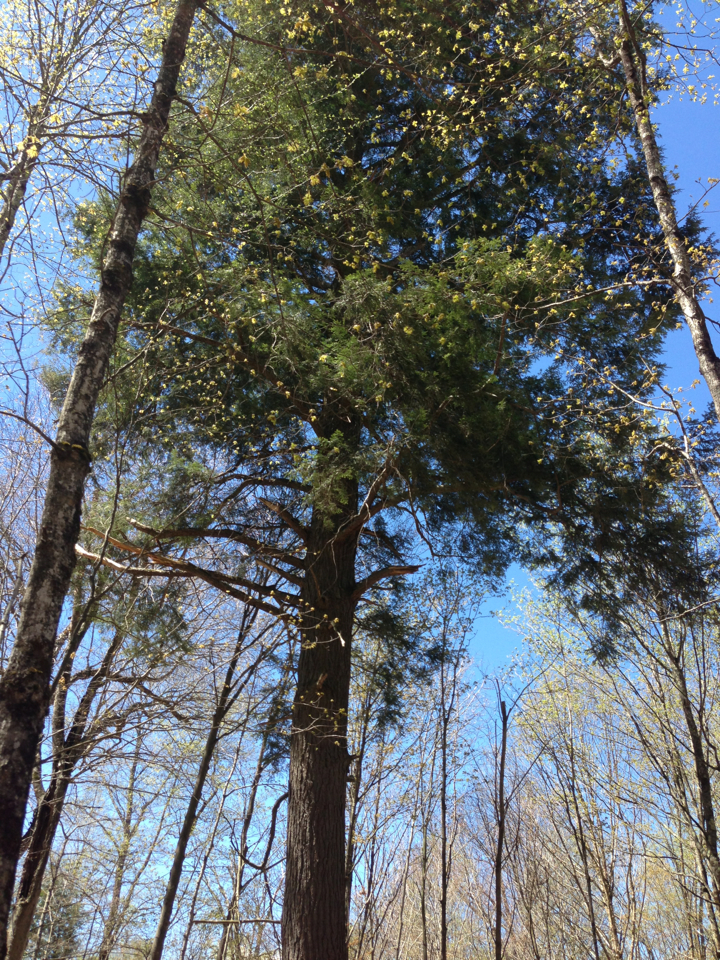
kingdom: Plantae
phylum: Tracheophyta
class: Pinopsida
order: Pinales
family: Pinaceae
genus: Tsuga
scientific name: Tsuga canadensis
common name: Eastern hemlock
